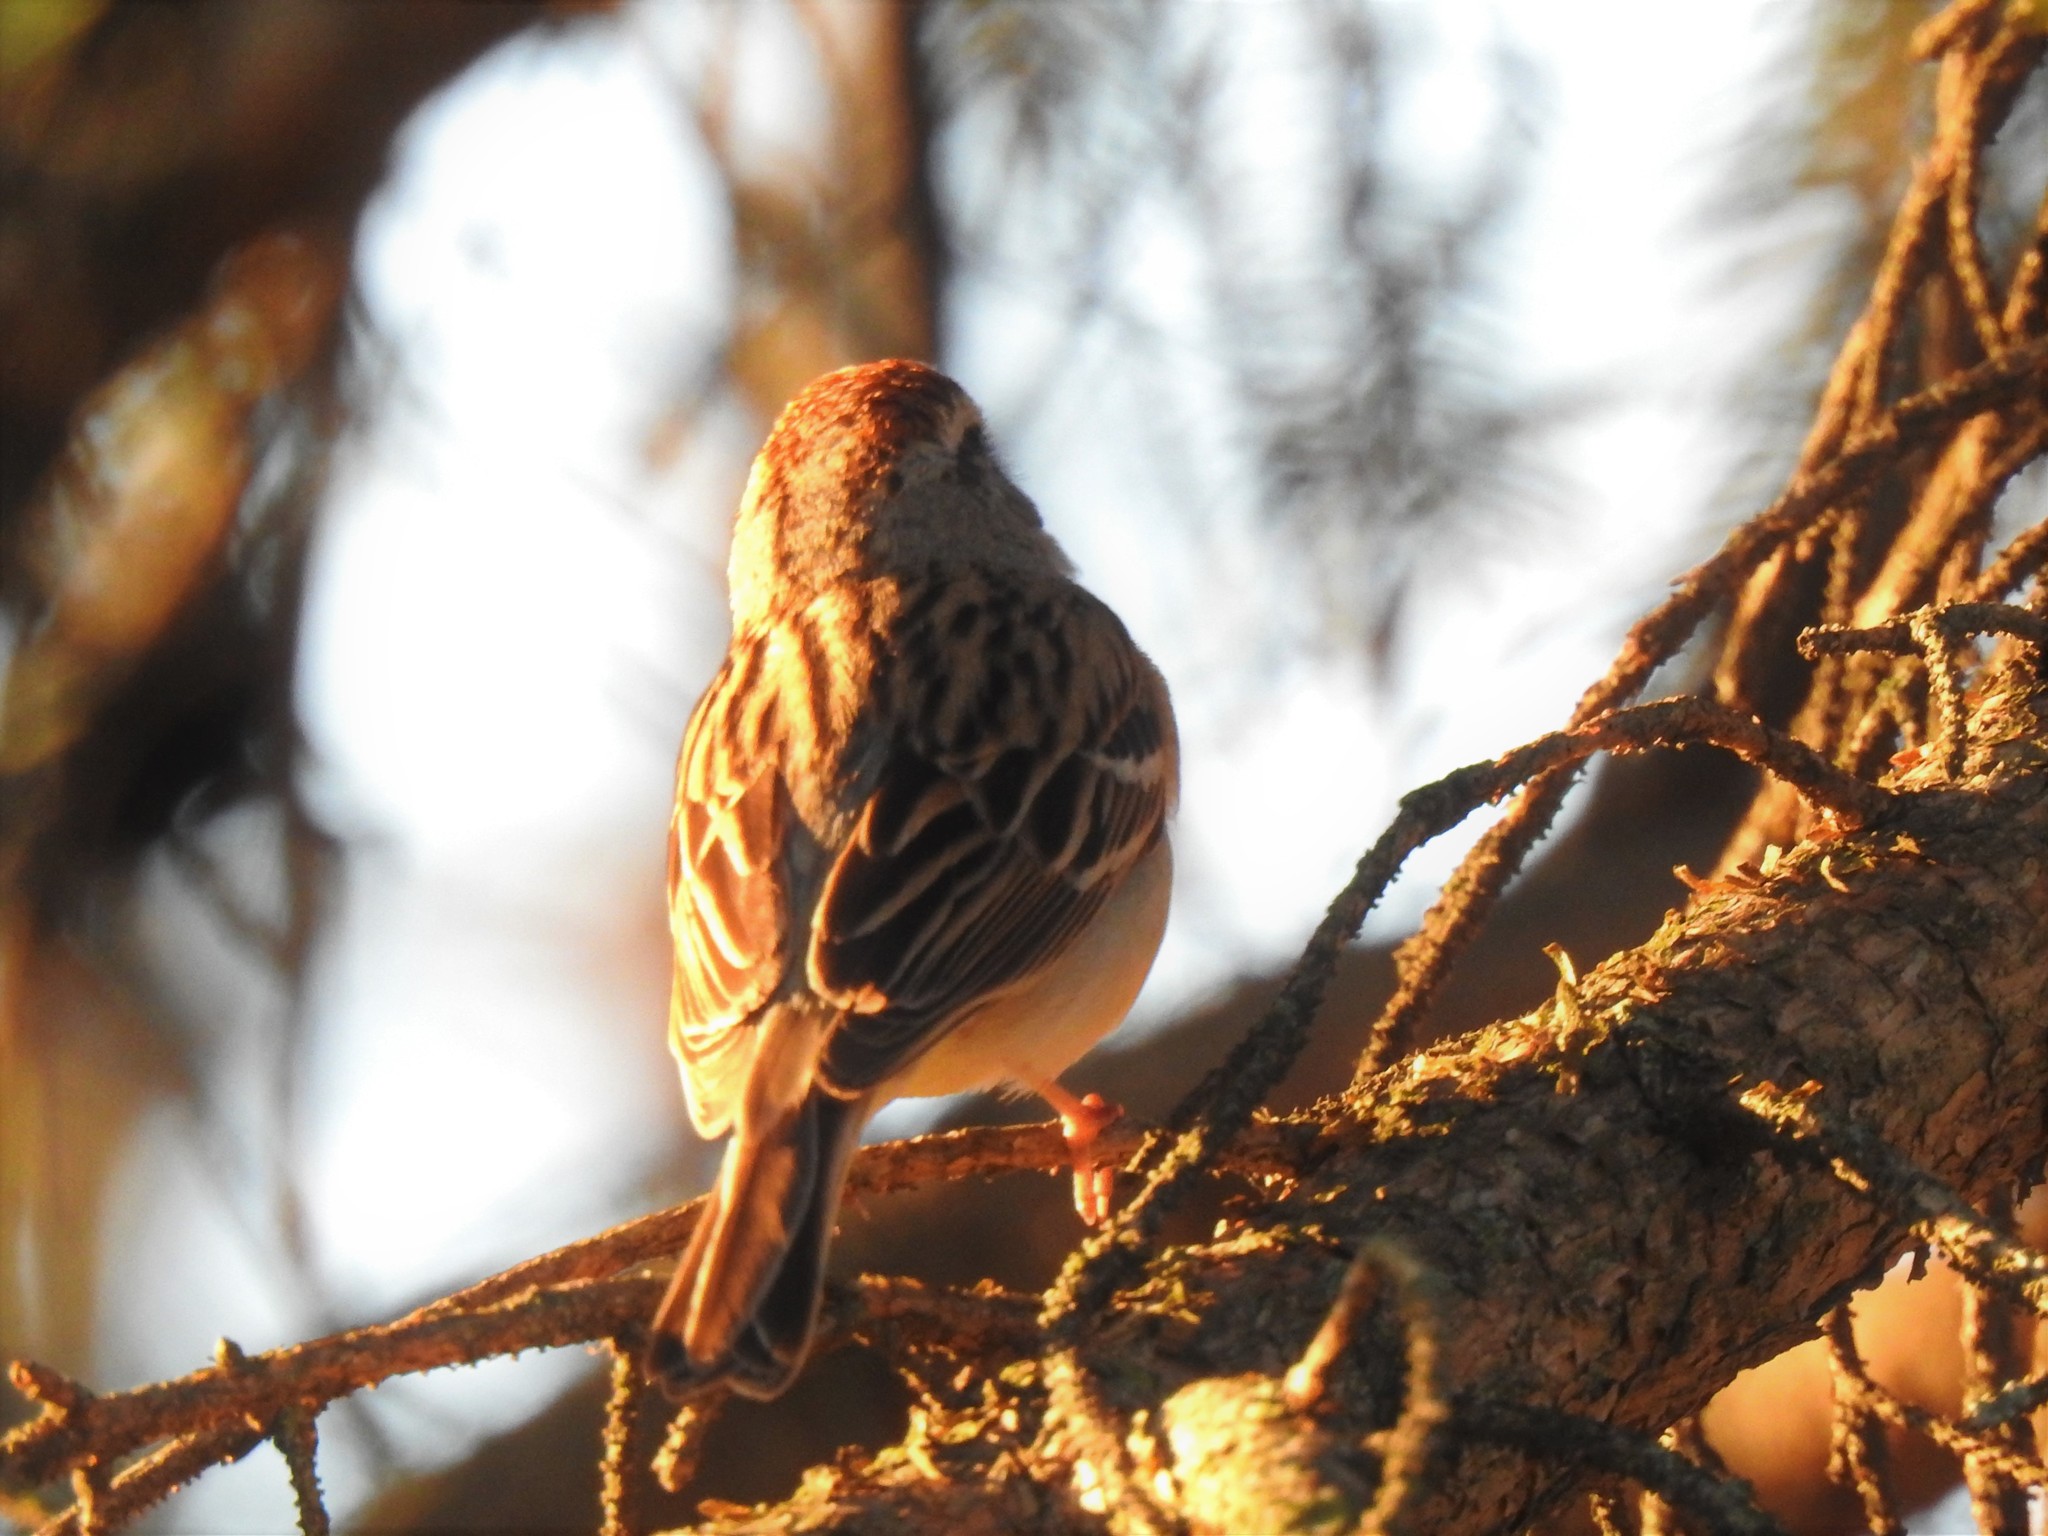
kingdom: Animalia
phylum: Chordata
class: Aves
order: Passeriformes
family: Passerellidae
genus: Spizella
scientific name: Spizella passerina
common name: Chipping sparrow
